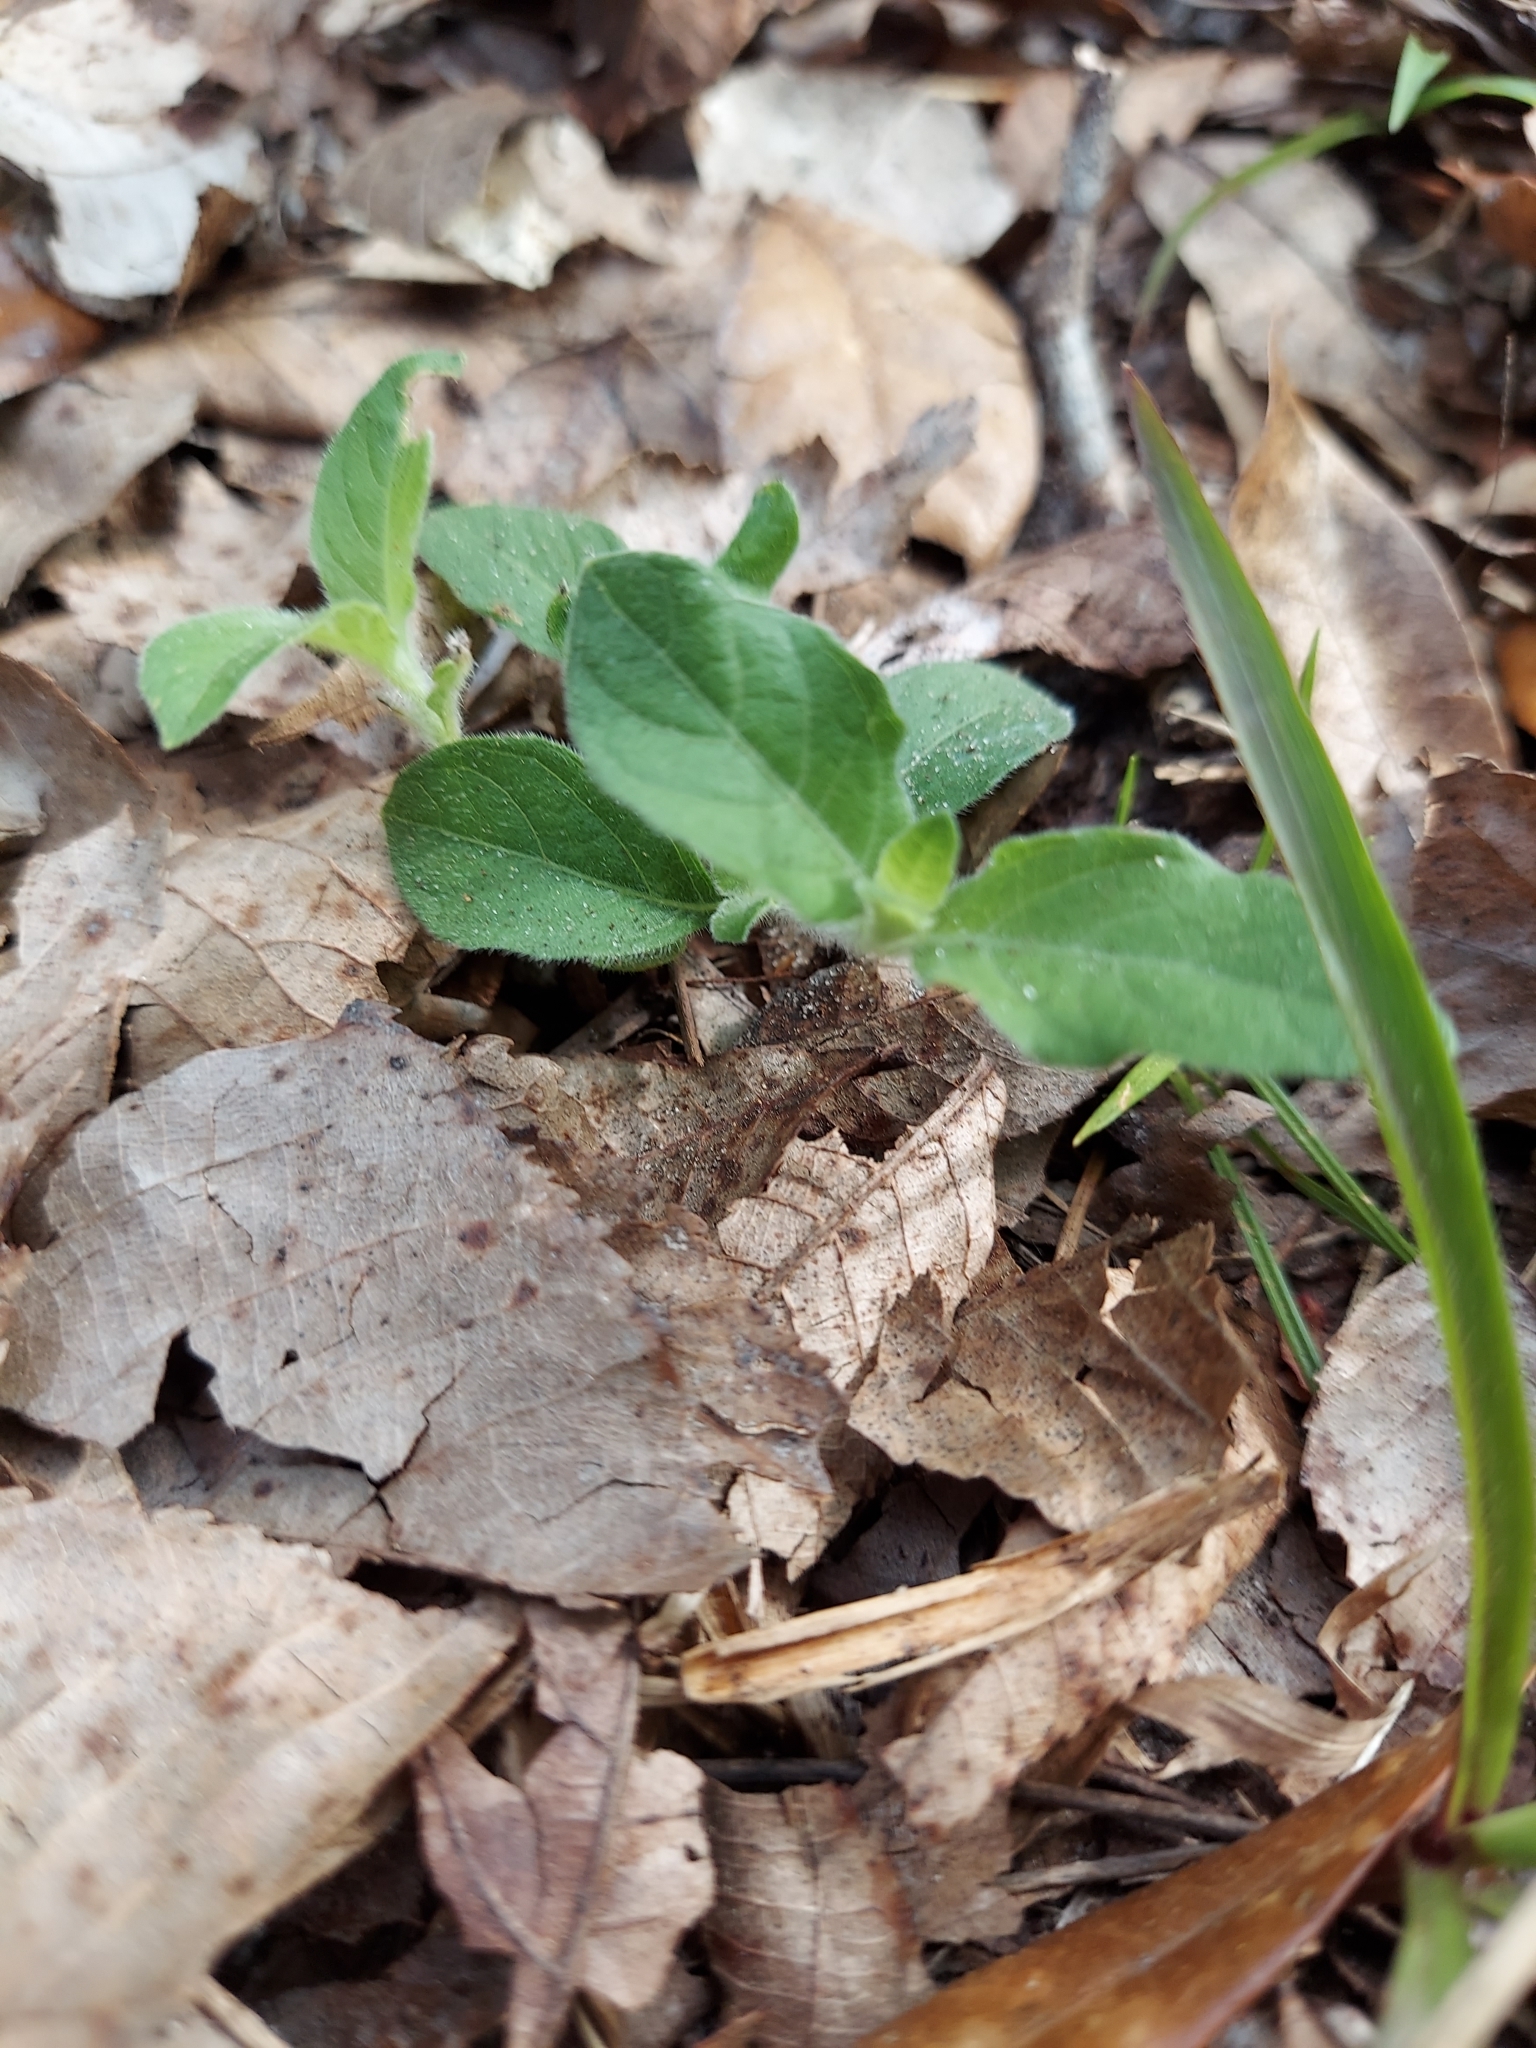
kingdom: Plantae
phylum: Tracheophyta
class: Magnoliopsida
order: Lamiales
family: Acanthaceae
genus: Ruellia
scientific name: Ruellia caroliniensis
